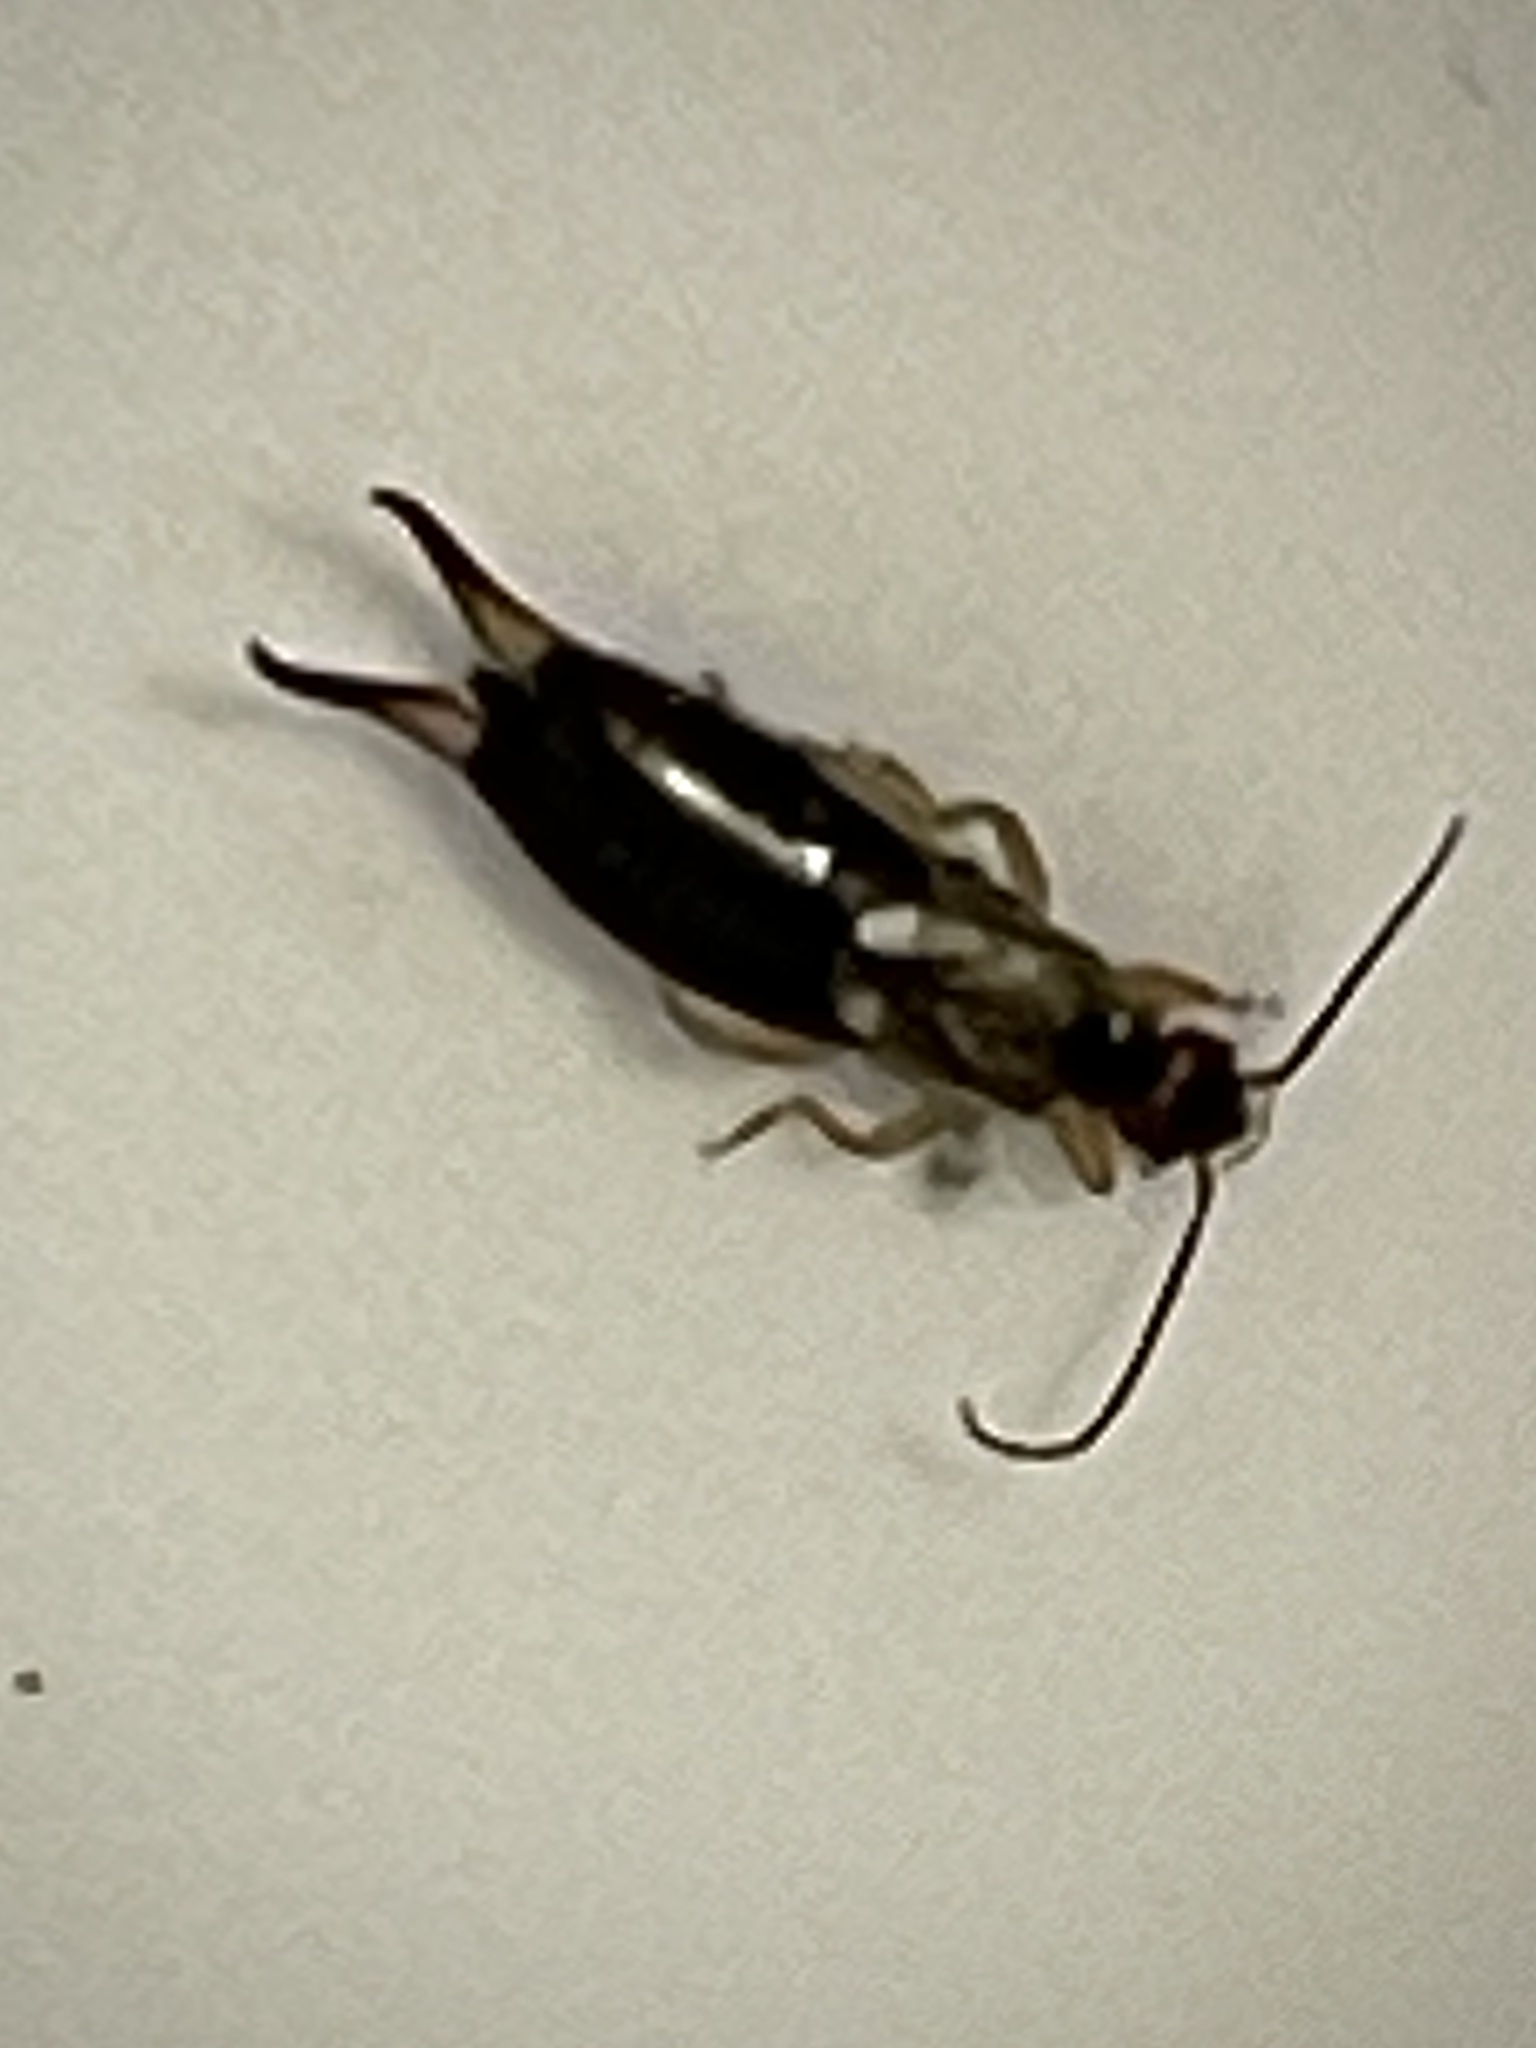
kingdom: Animalia
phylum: Arthropoda
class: Insecta
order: Dermaptera
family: Forficulidae
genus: Forficula
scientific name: Forficula
